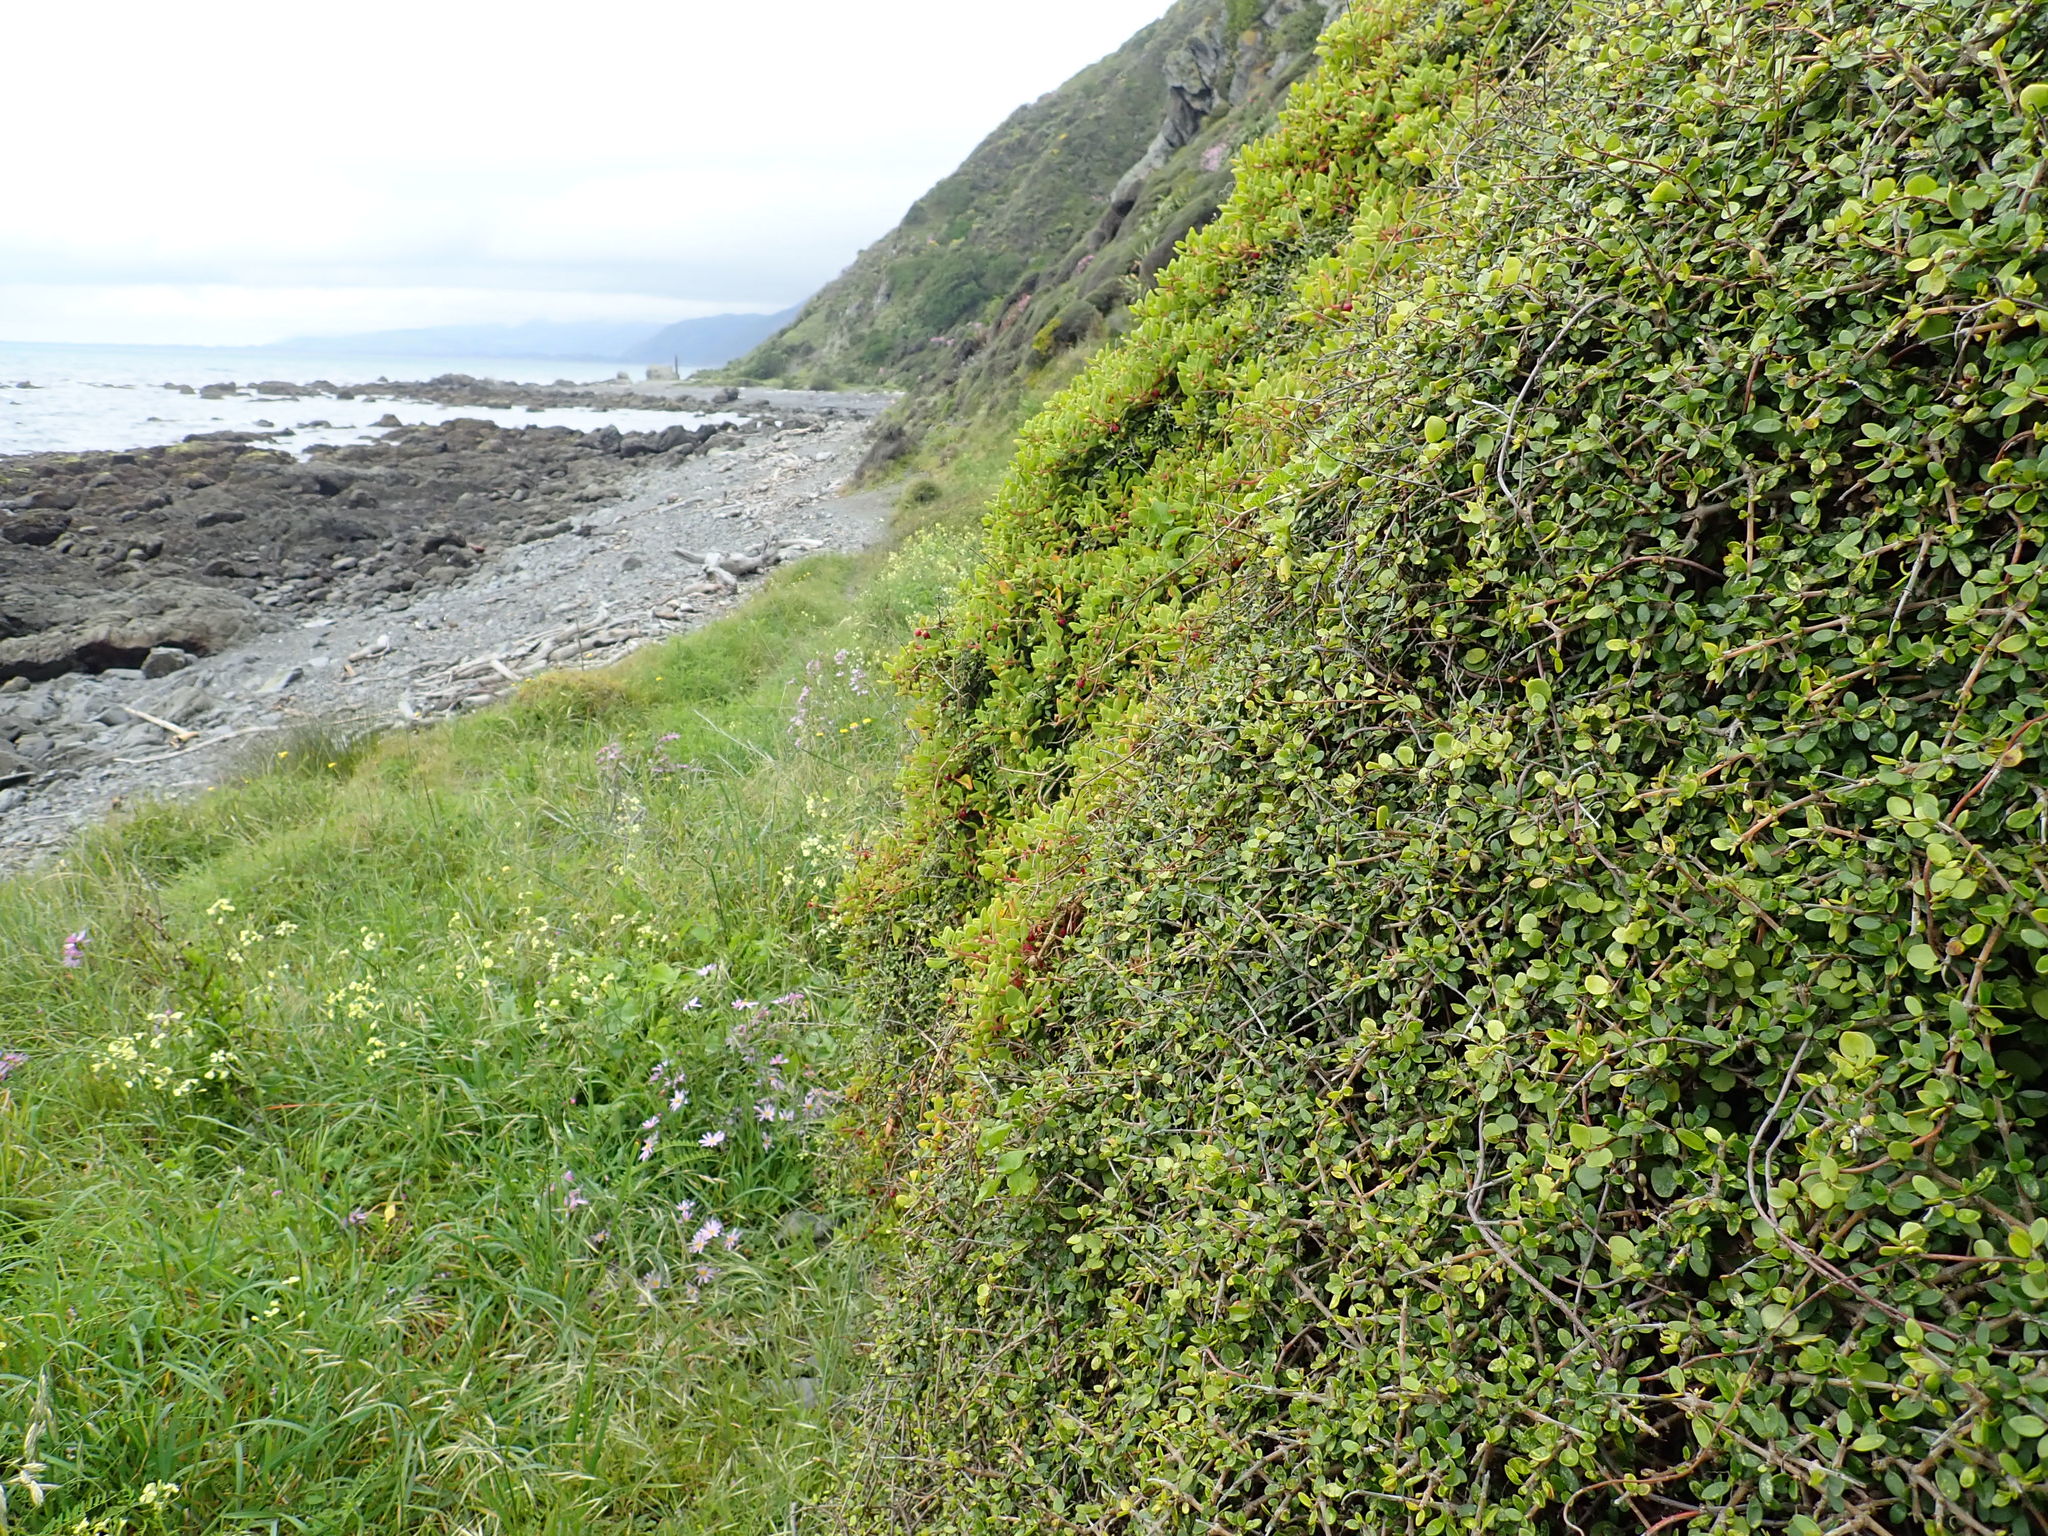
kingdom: Plantae
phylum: Tracheophyta
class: Magnoliopsida
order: Caryophyllales
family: Aizoaceae
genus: Tetragonia
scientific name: Tetragonia implexicoma
